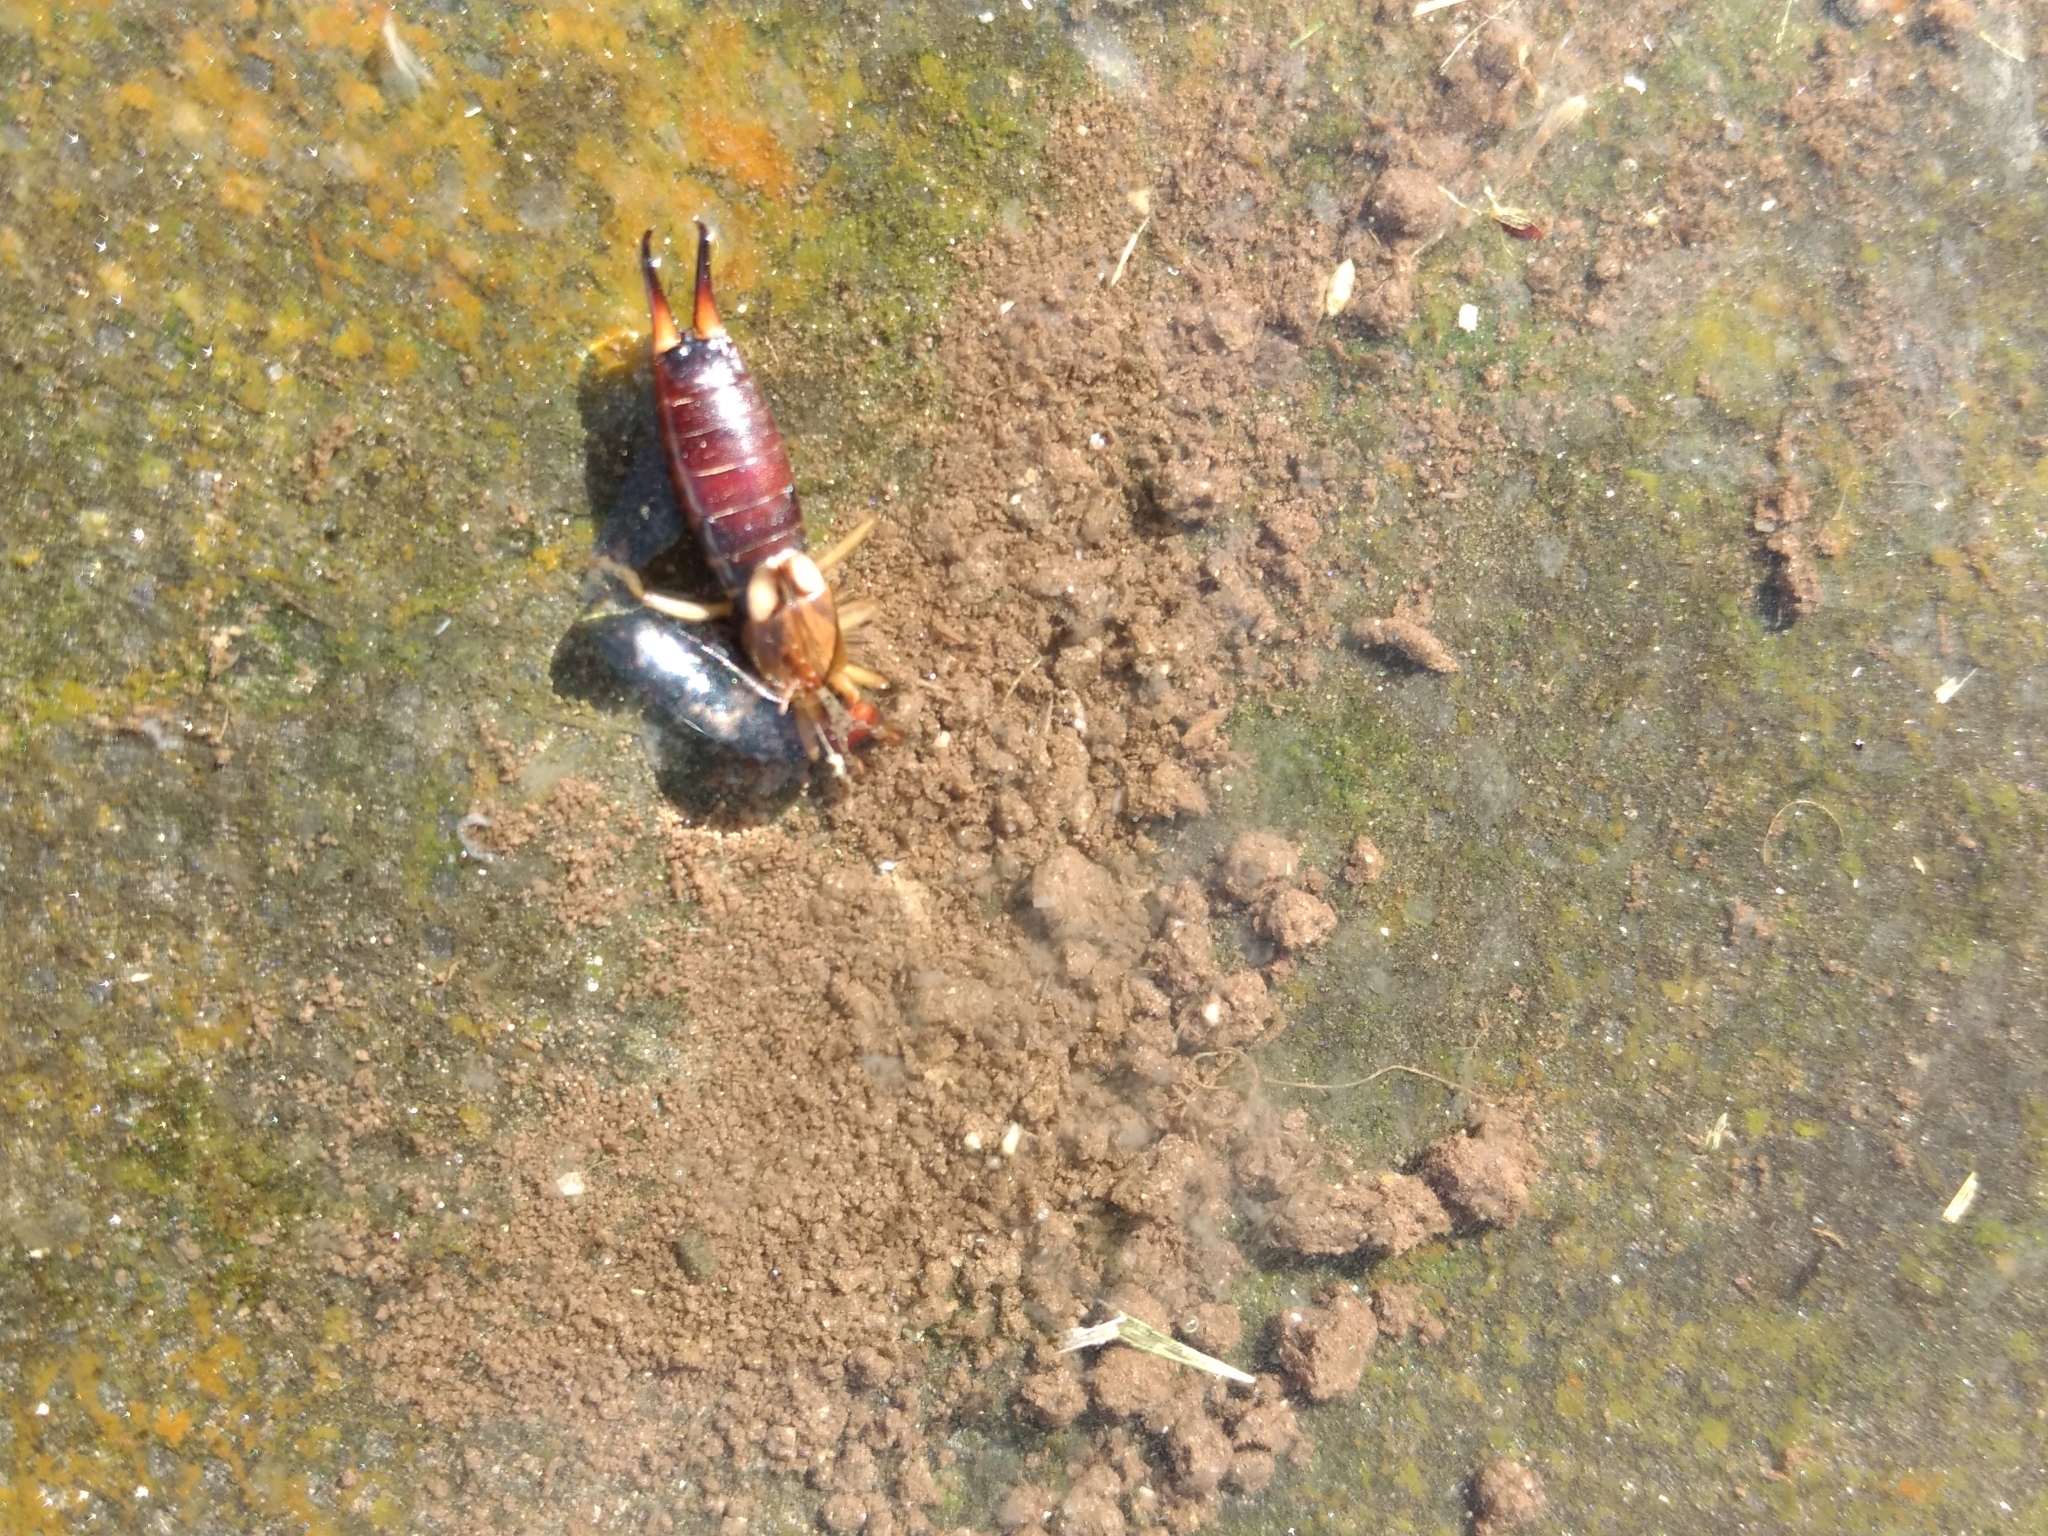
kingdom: Animalia
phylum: Arthropoda
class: Insecta
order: Dermaptera
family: Forficulidae
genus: Forficula
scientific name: Forficula
